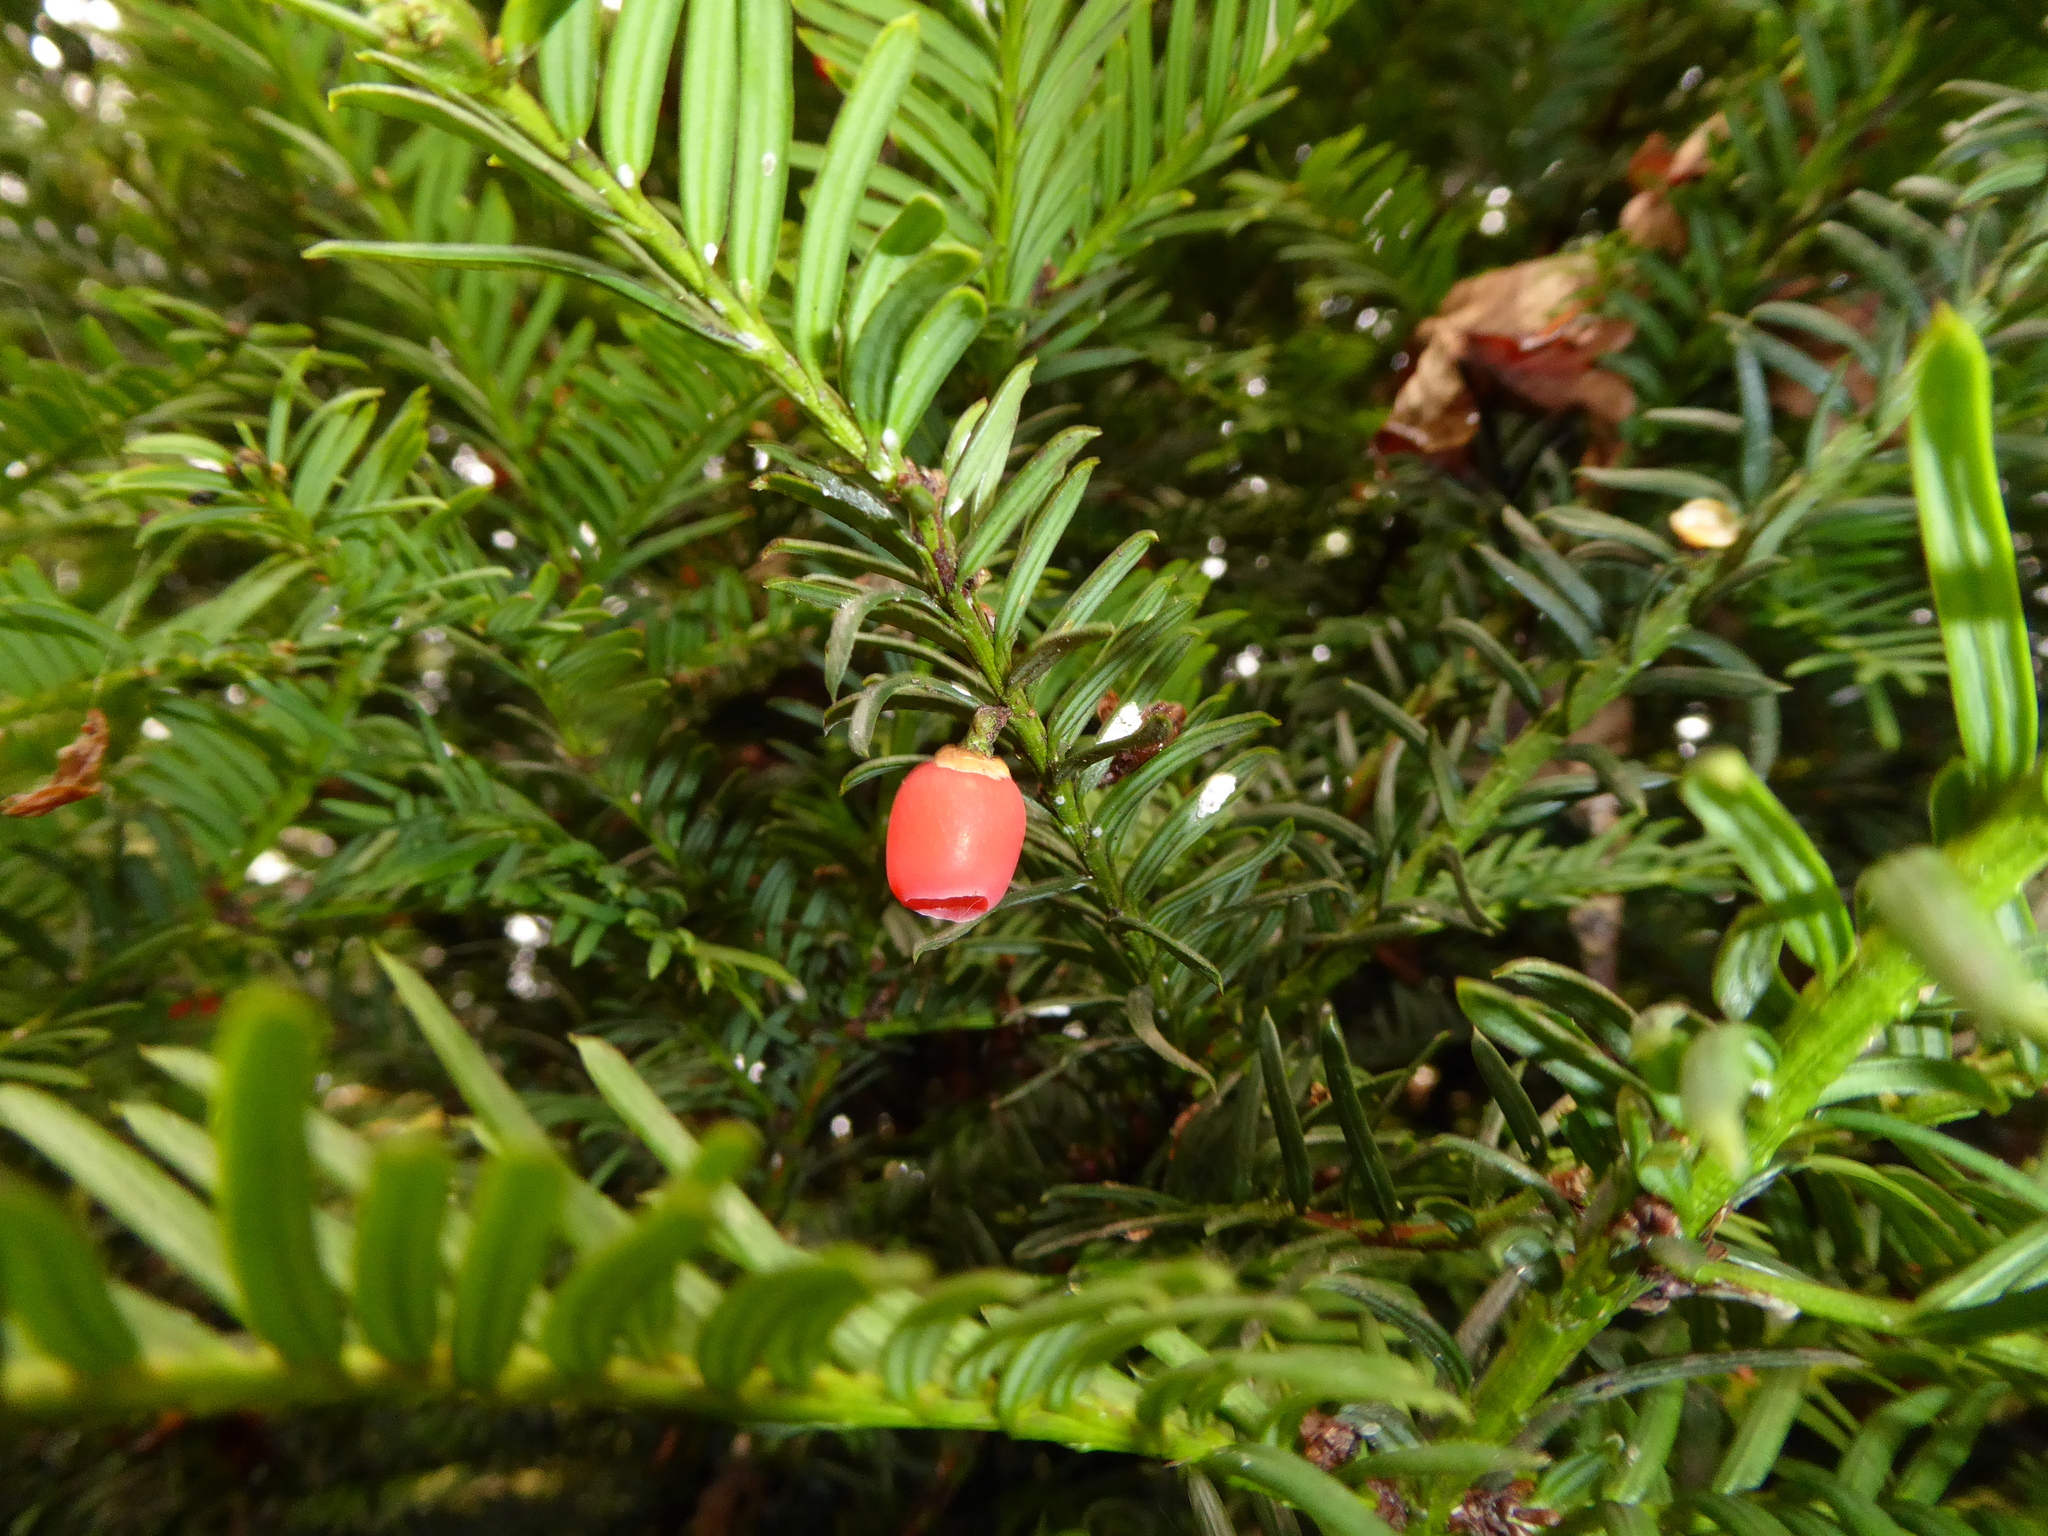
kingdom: Plantae
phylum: Tracheophyta
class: Pinopsida
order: Pinales
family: Taxaceae
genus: Taxus
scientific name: Taxus baccata
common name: Yew
